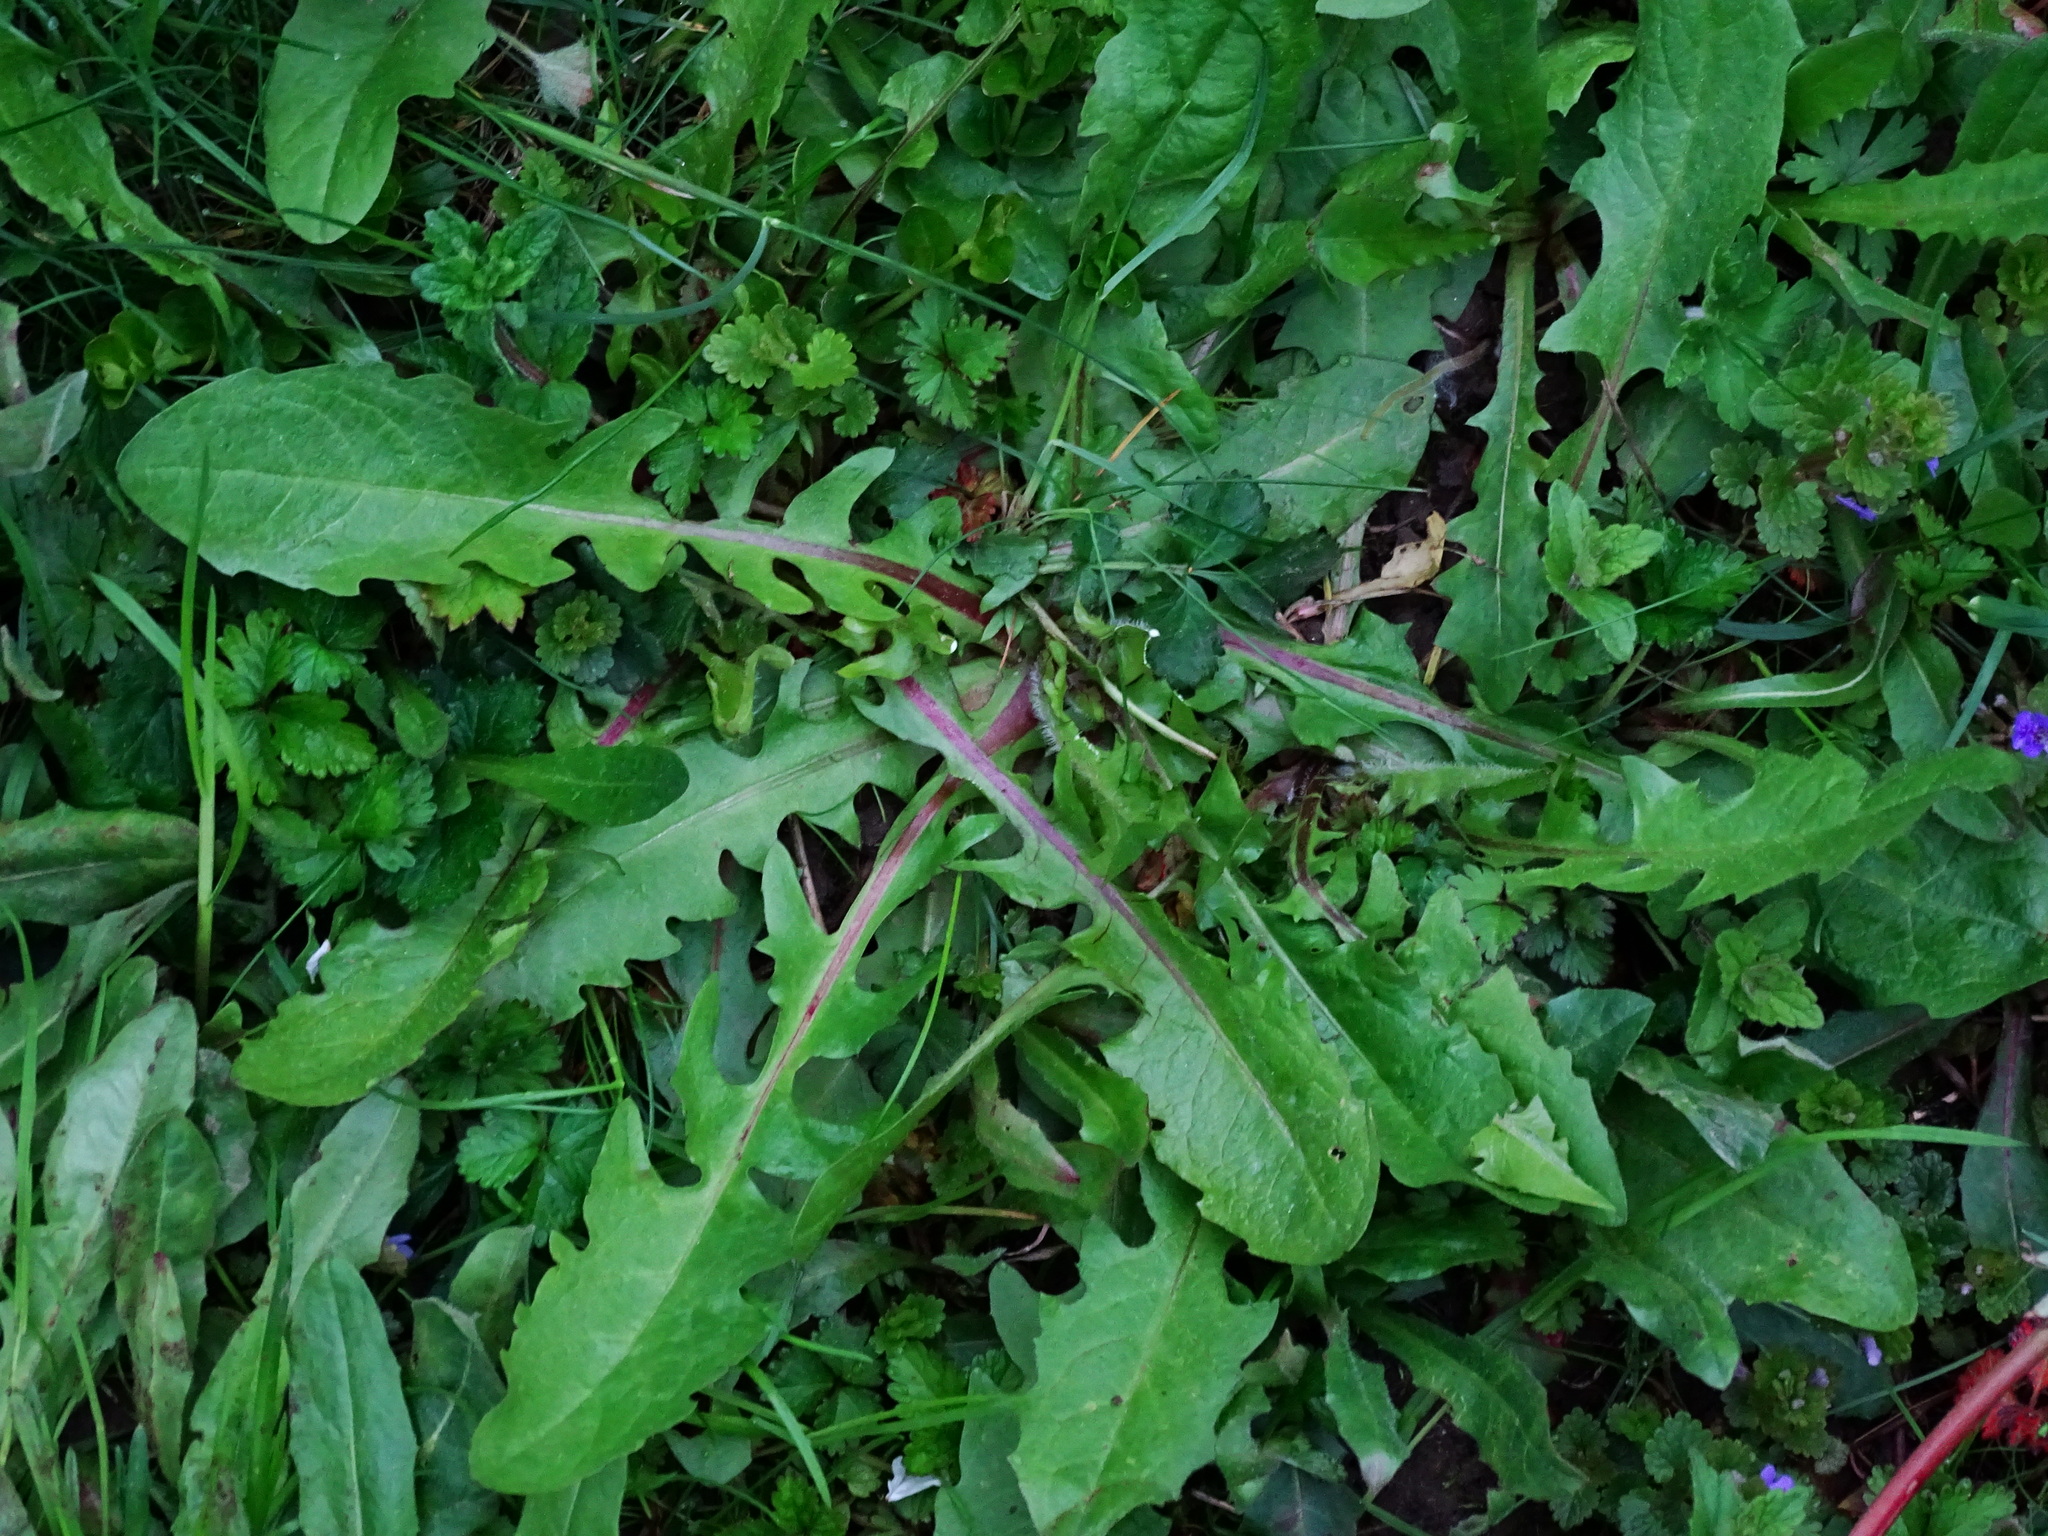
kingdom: Plantae
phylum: Tracheophyta
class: Magnoliopsida
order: Asterales
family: Asteraceae
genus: Cichorium
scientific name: Cichorium intybus
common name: Chicory
